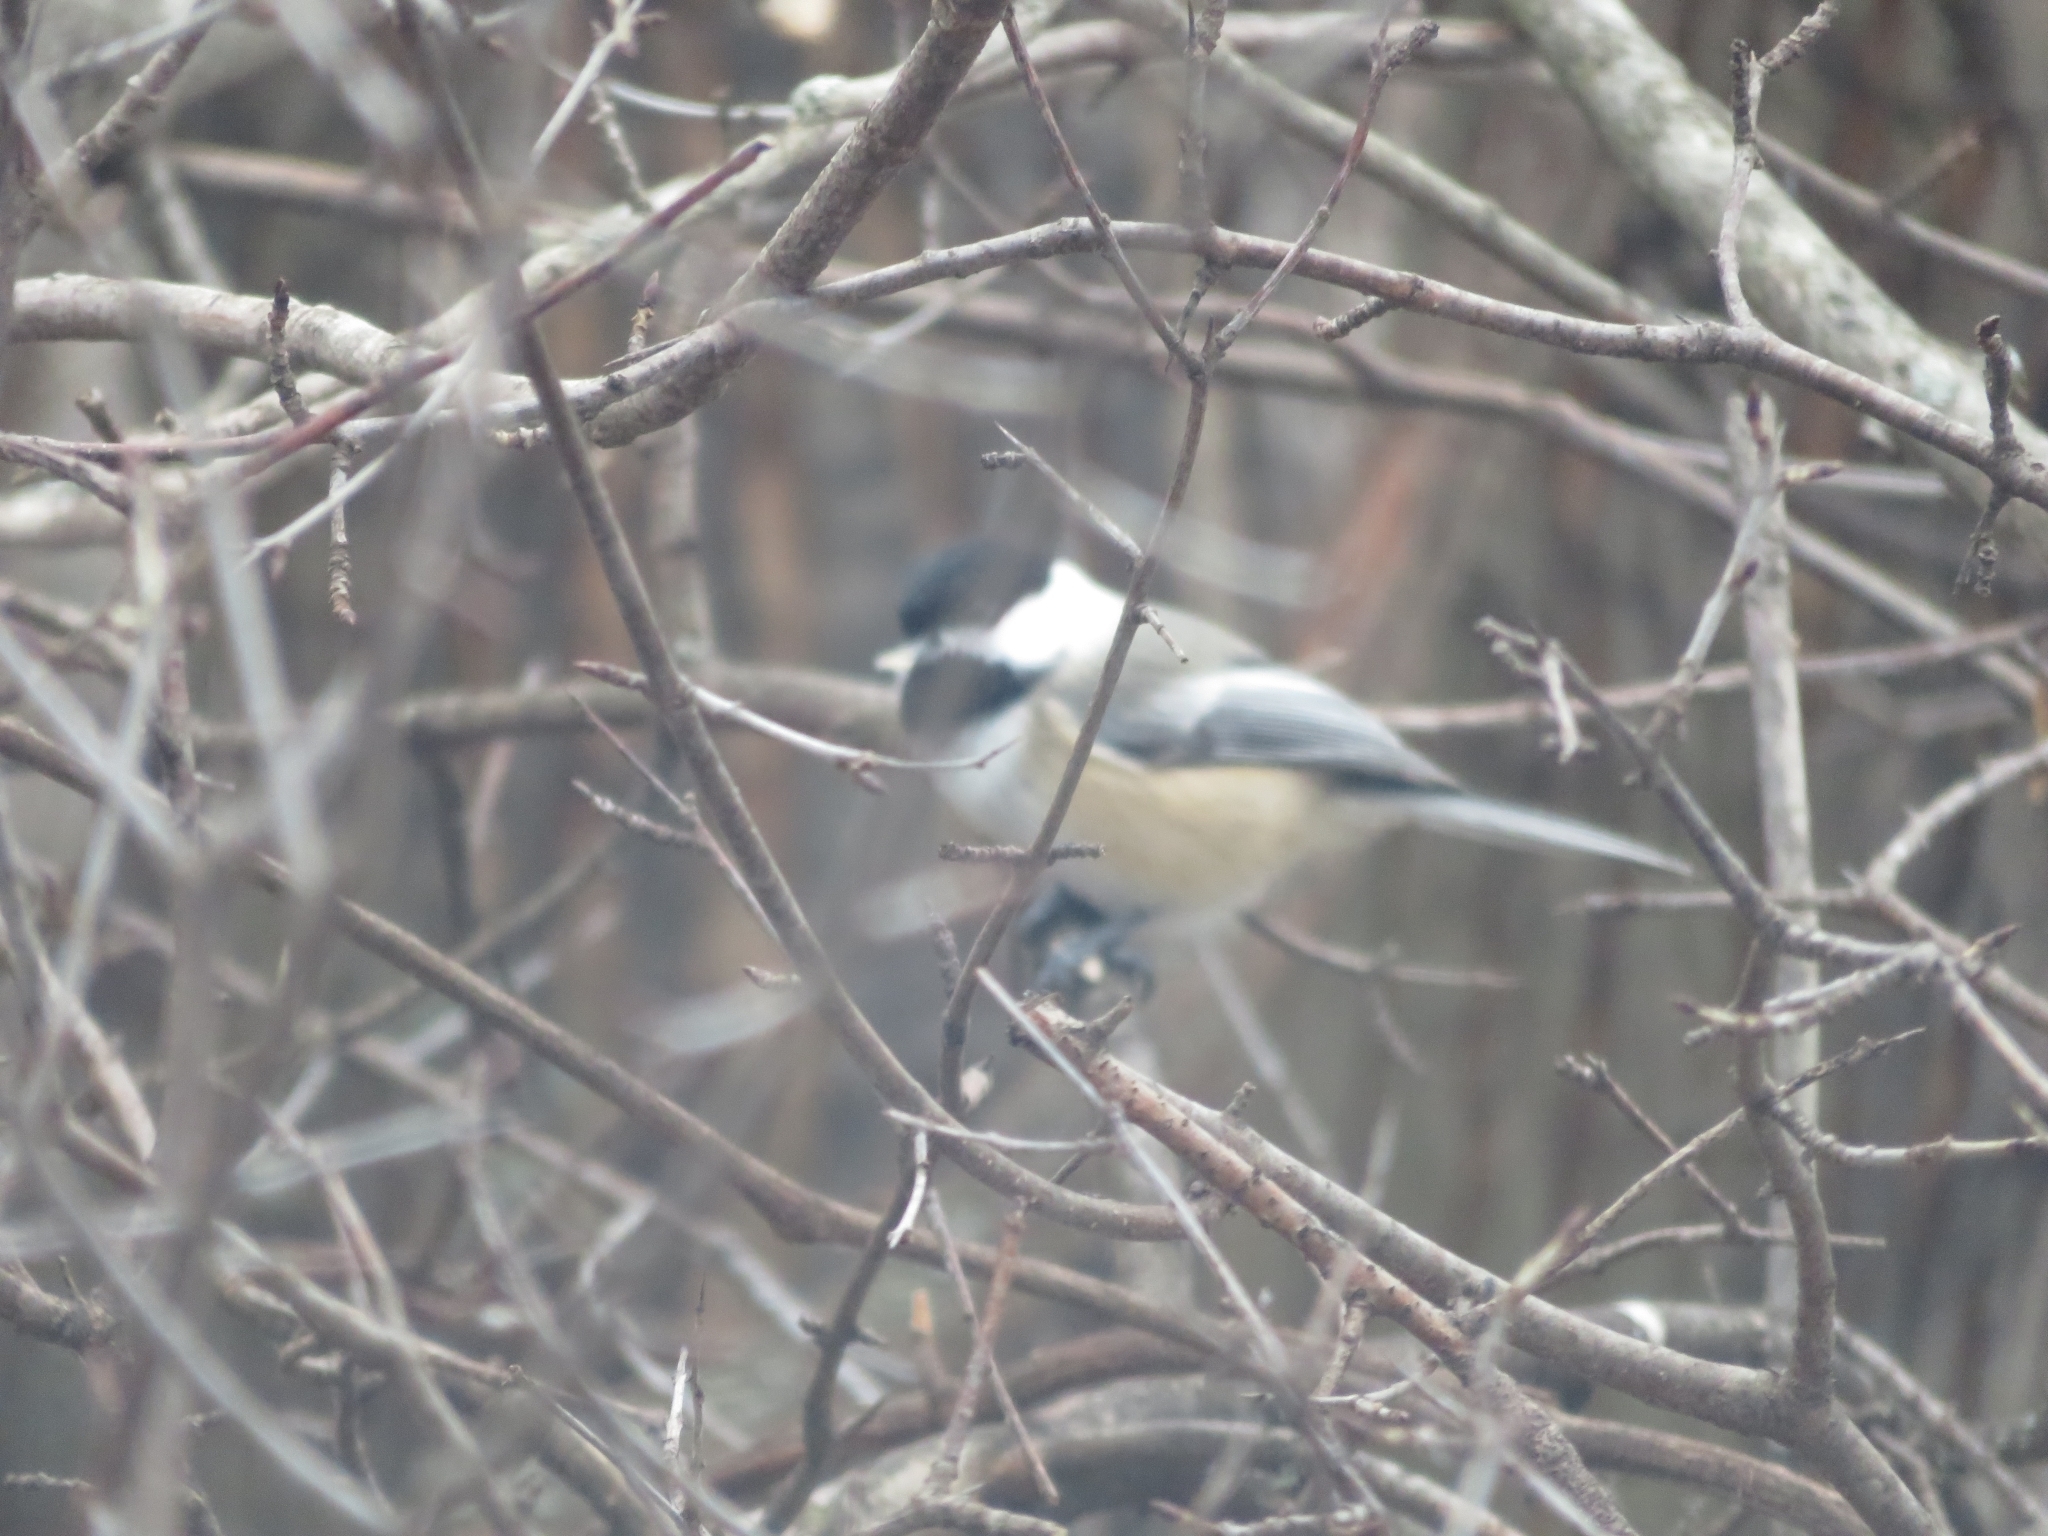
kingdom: Animalia
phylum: Chordata
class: Aves
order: Passeriformes
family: Paridae
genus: Poecile
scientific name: Poecile atricapillus
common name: Black-capped chickadee
